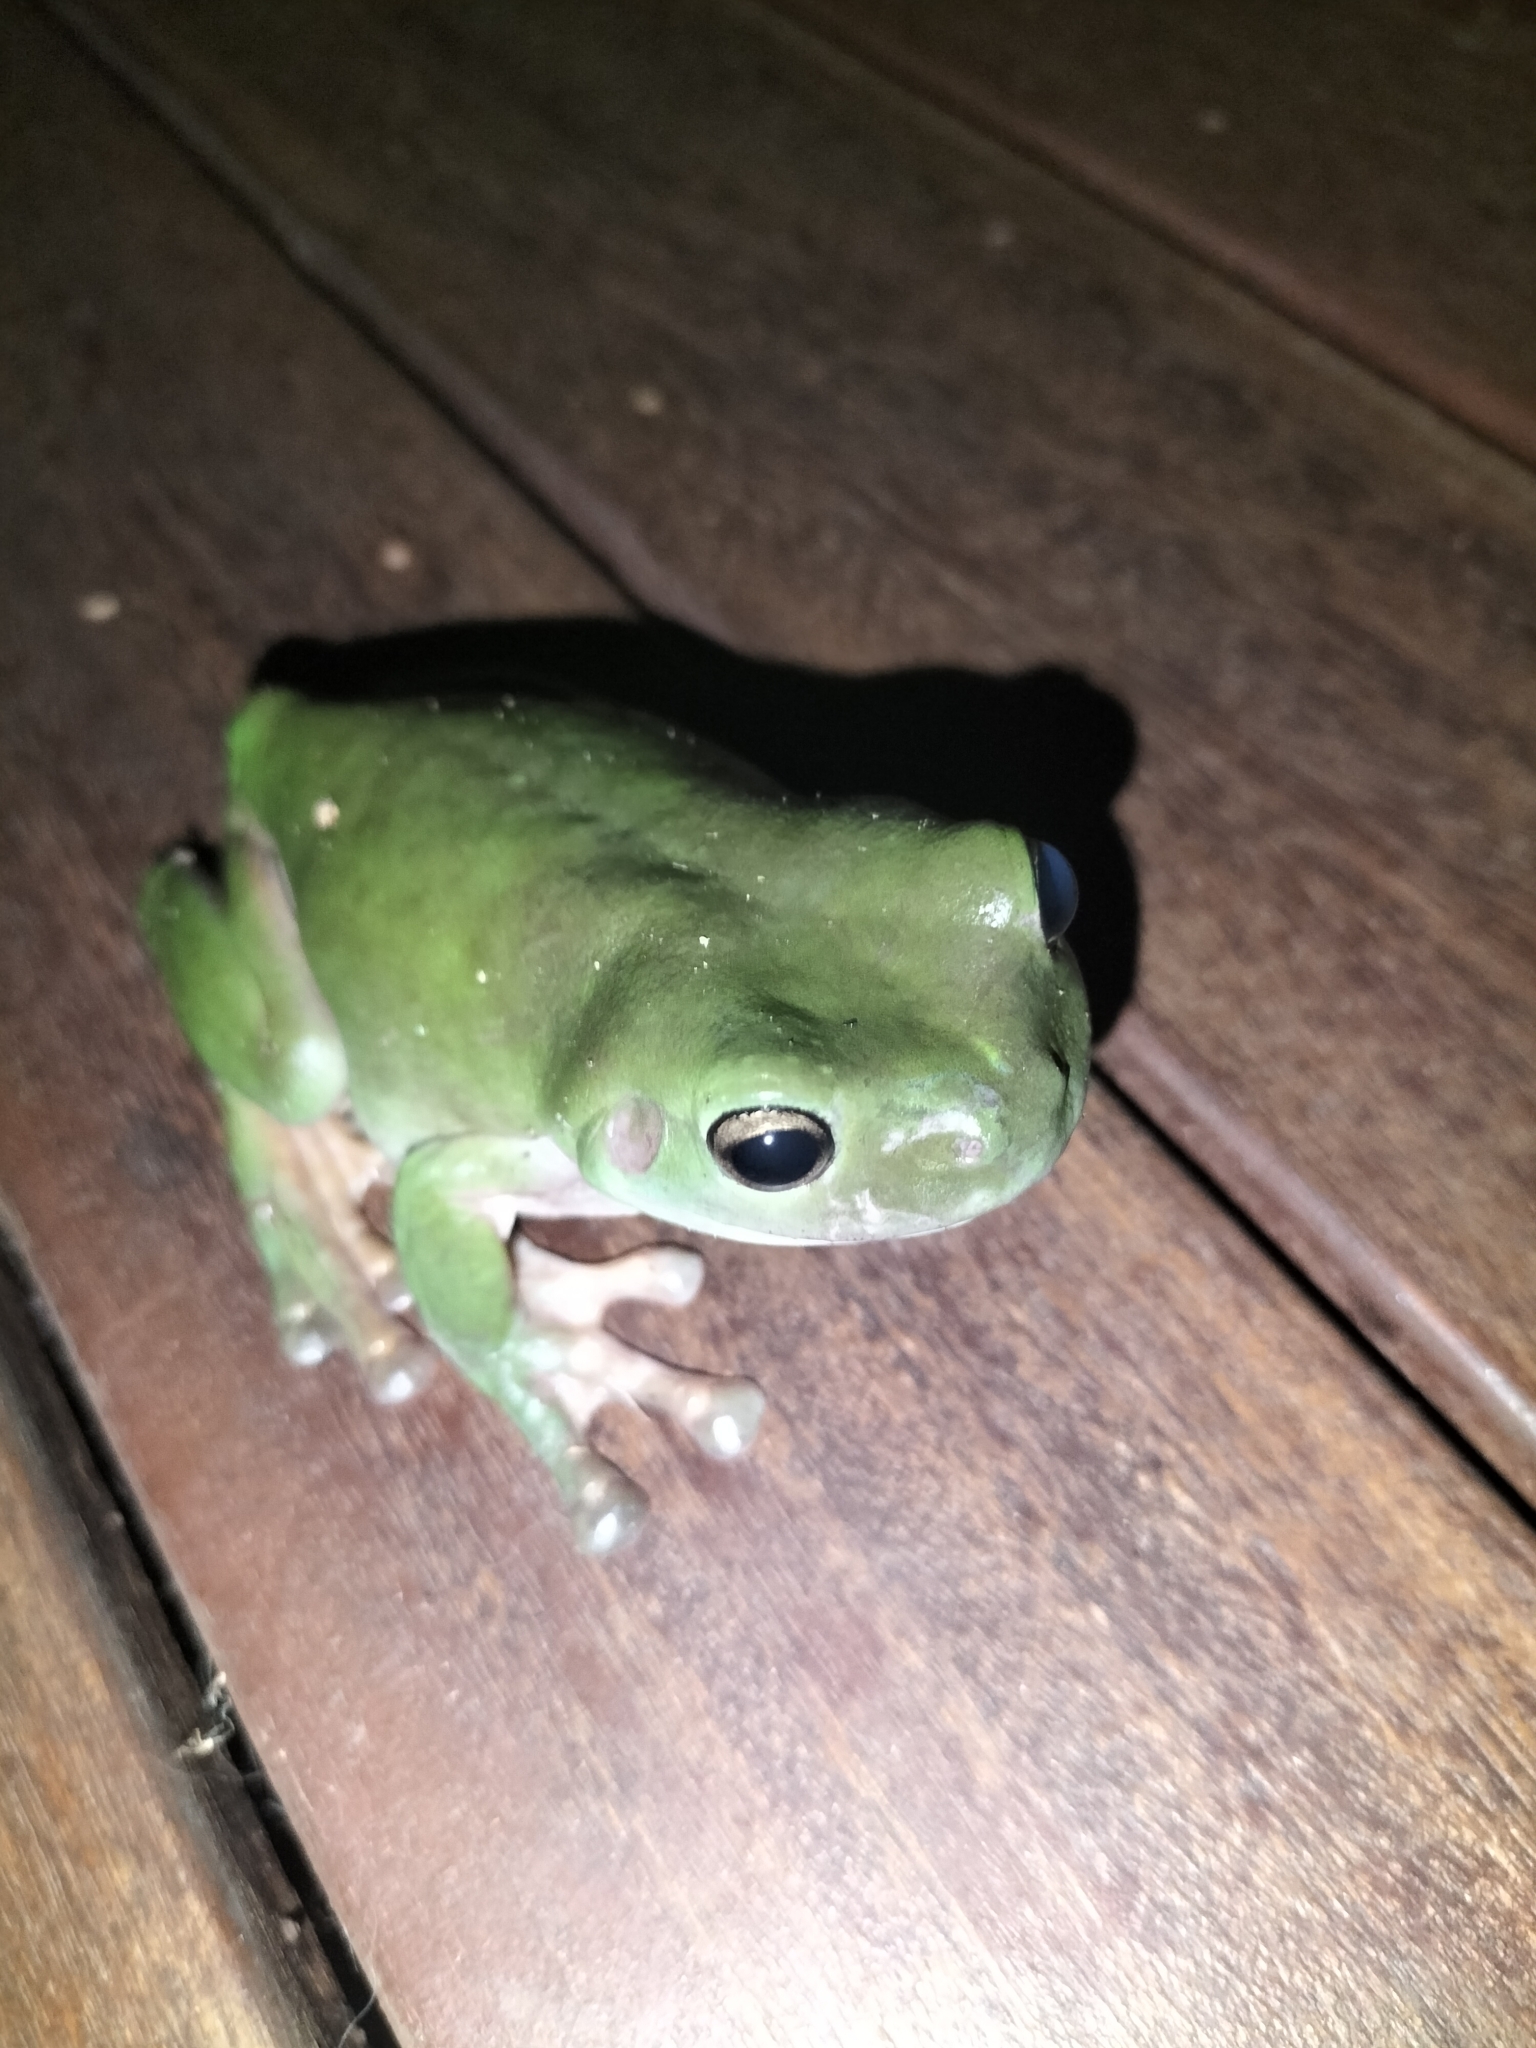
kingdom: Animalia
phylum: Chordata
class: Amphibia
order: Anura
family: Pelodryadidae
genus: Ranoidea
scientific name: Ranoidea caerulea
